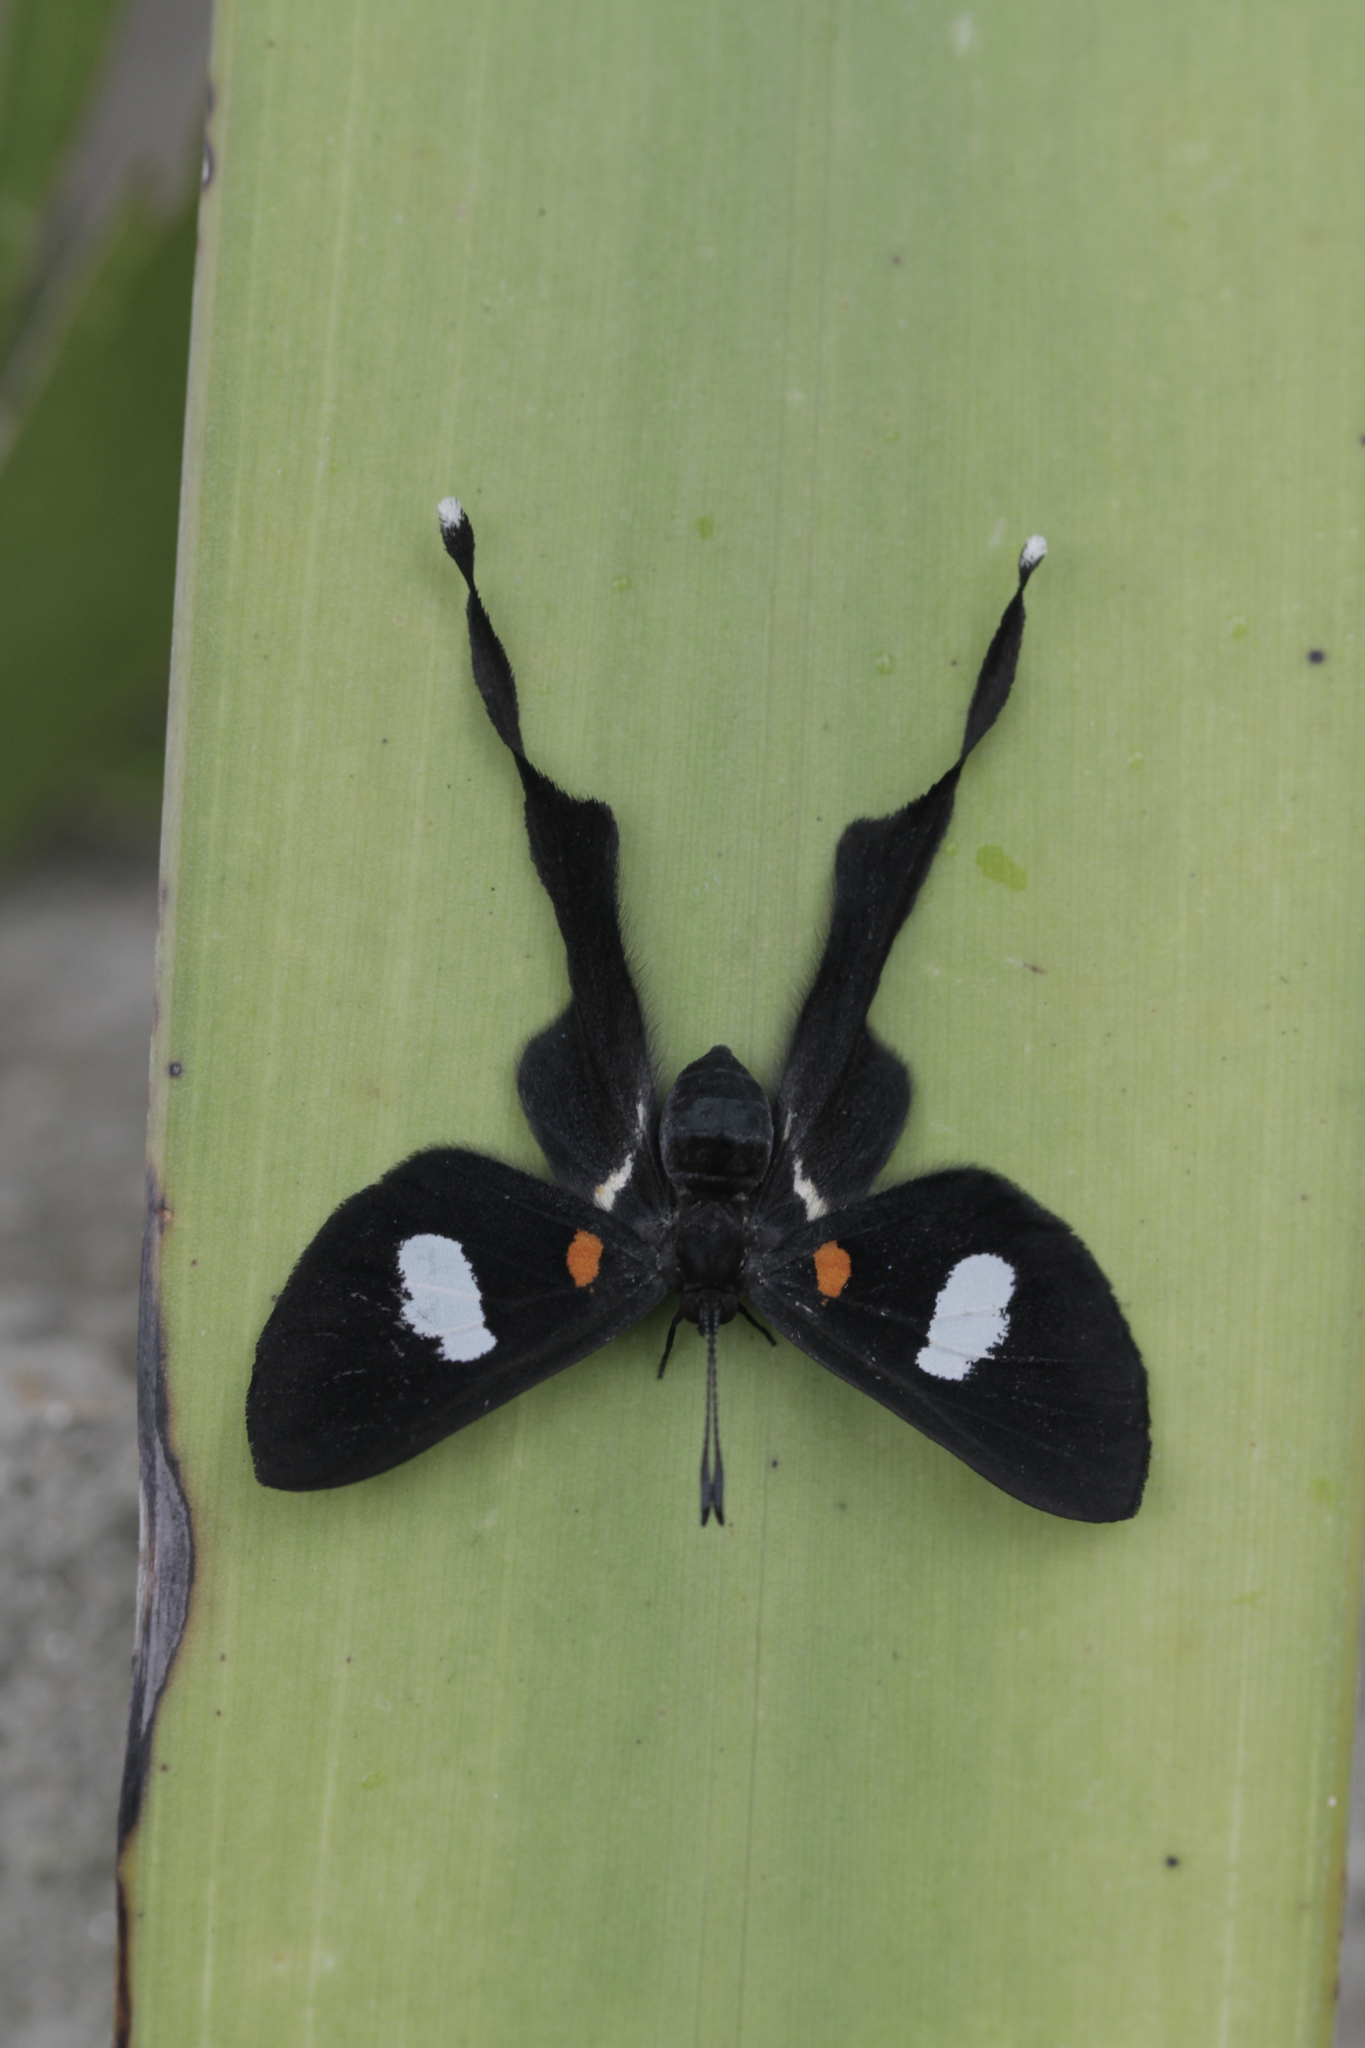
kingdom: Animalia
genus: Syrmatia
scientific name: Syrmatia nyx
